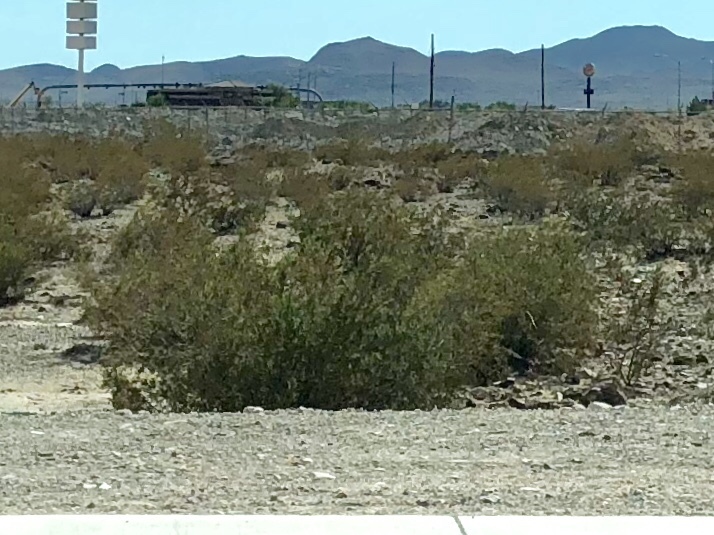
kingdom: Plantae
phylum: Tracheophyta
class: Magnoliopsida
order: Zygophyllales
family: Zygophyllaceae
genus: Larrea
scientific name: Larrea tridentata
